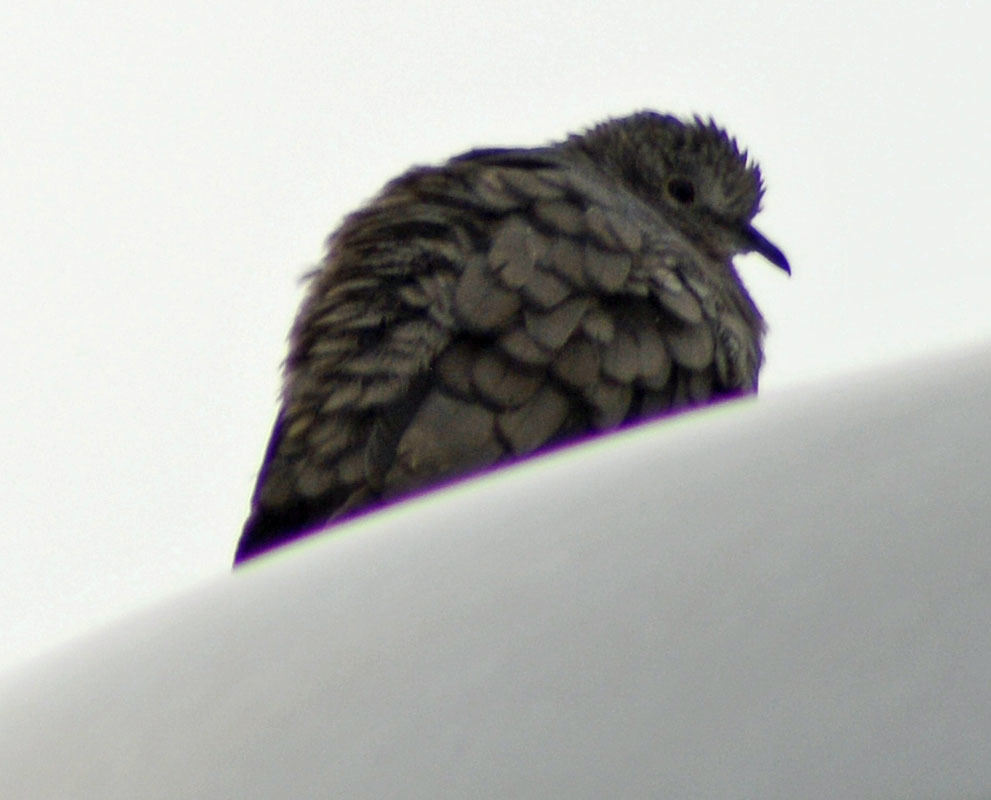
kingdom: Animalia
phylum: Chordata
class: Aves
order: Columbiformes
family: Columbidae
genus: Columbina
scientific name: Columbina inca
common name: Inca dove
